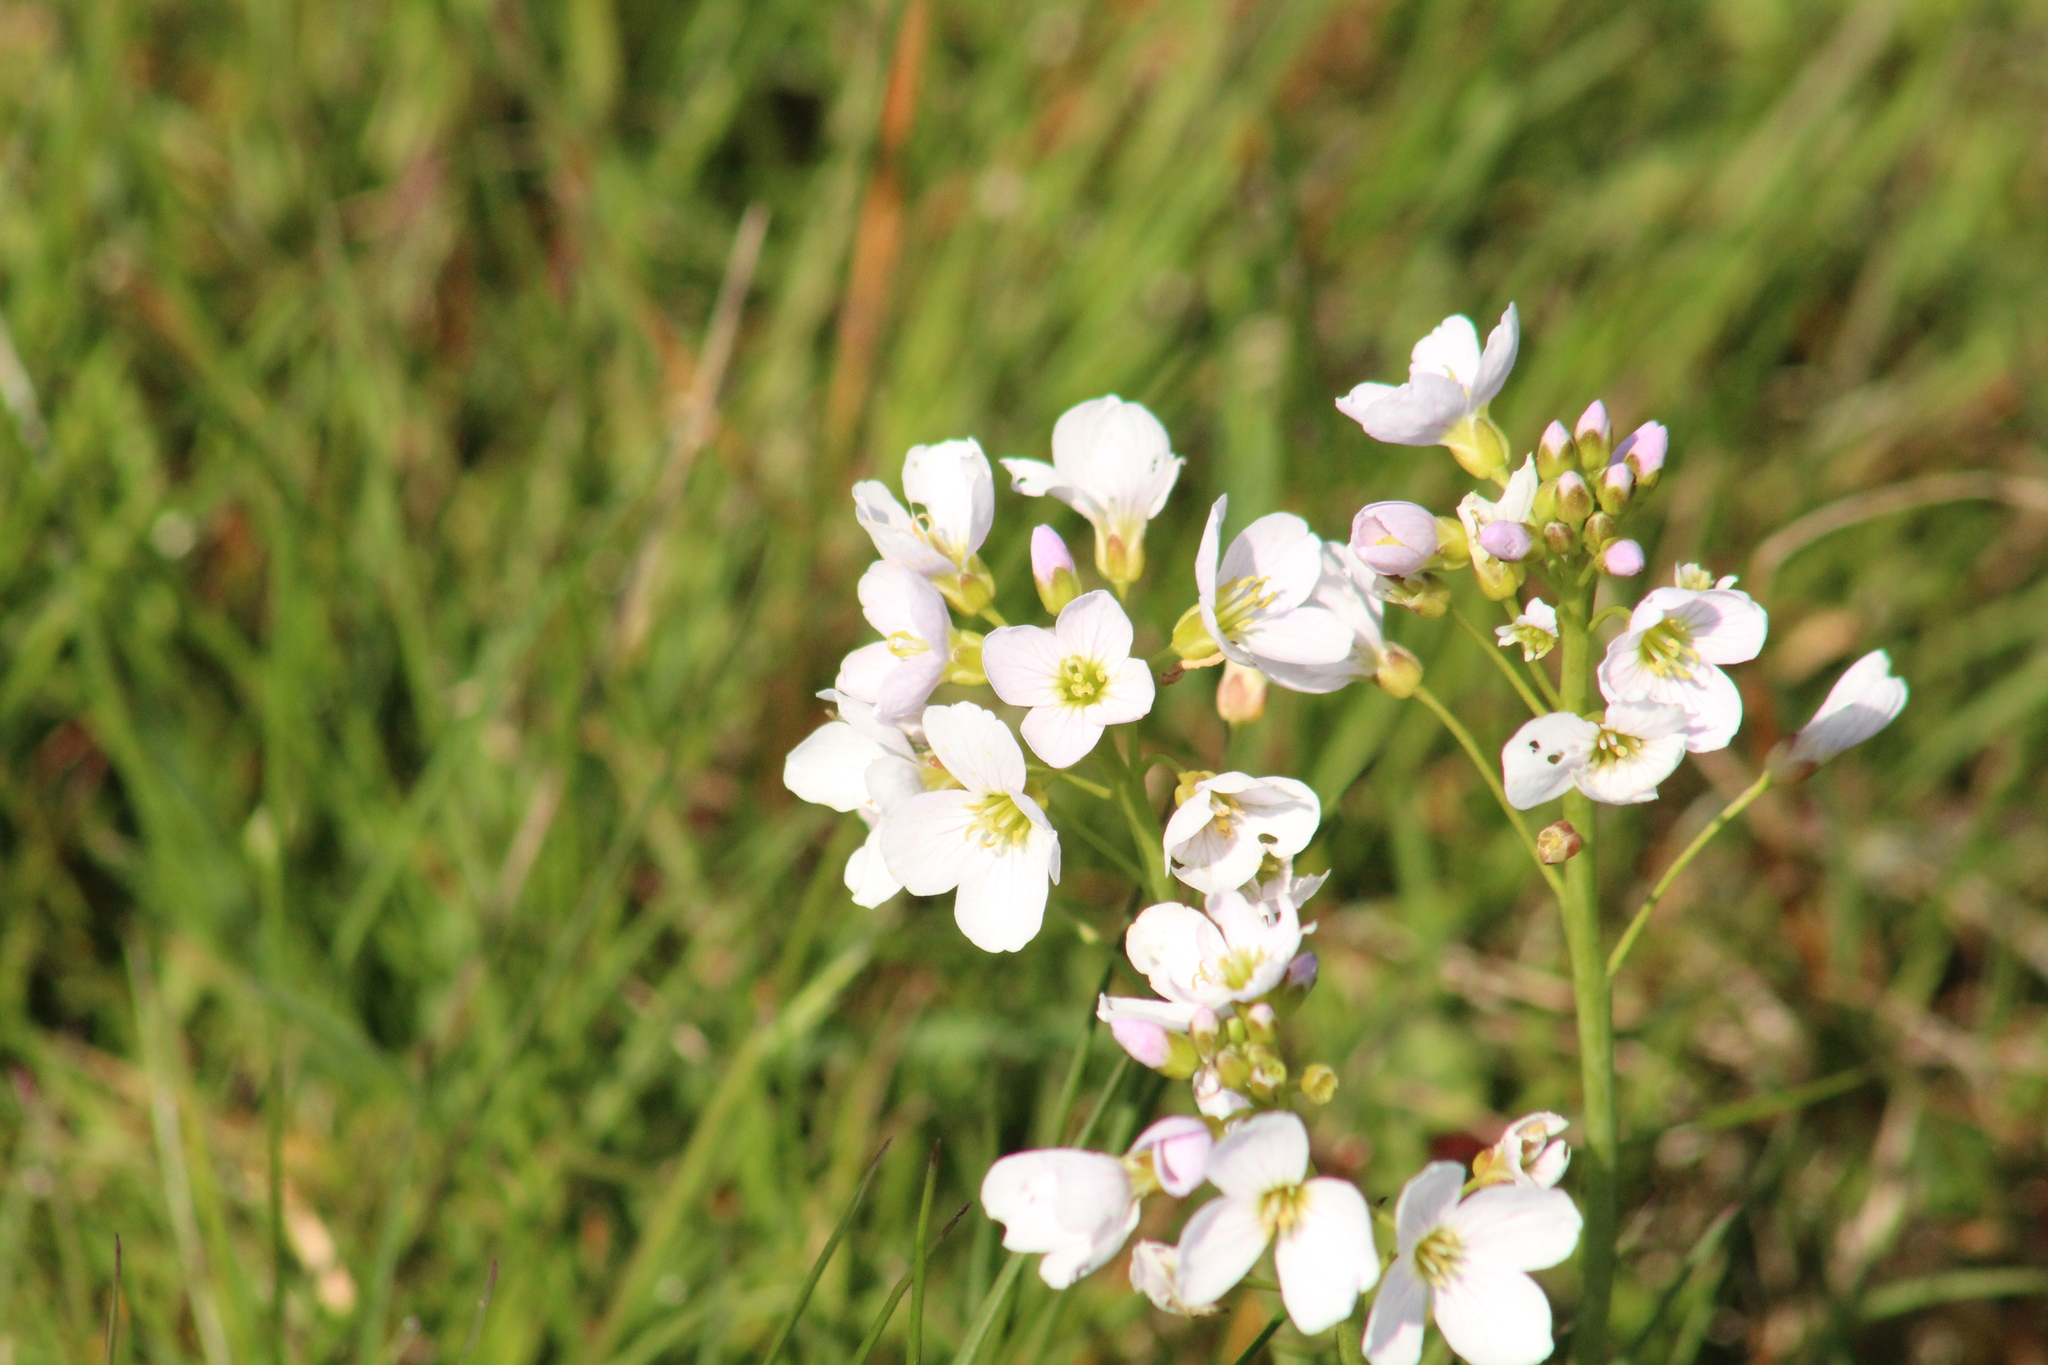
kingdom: Plantae
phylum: Tracheophyta
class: Magnoliopsida
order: Brassicales
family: Brassicaceae
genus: Cardamine
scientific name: Cardamine pratensis
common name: Cuckoo flower
